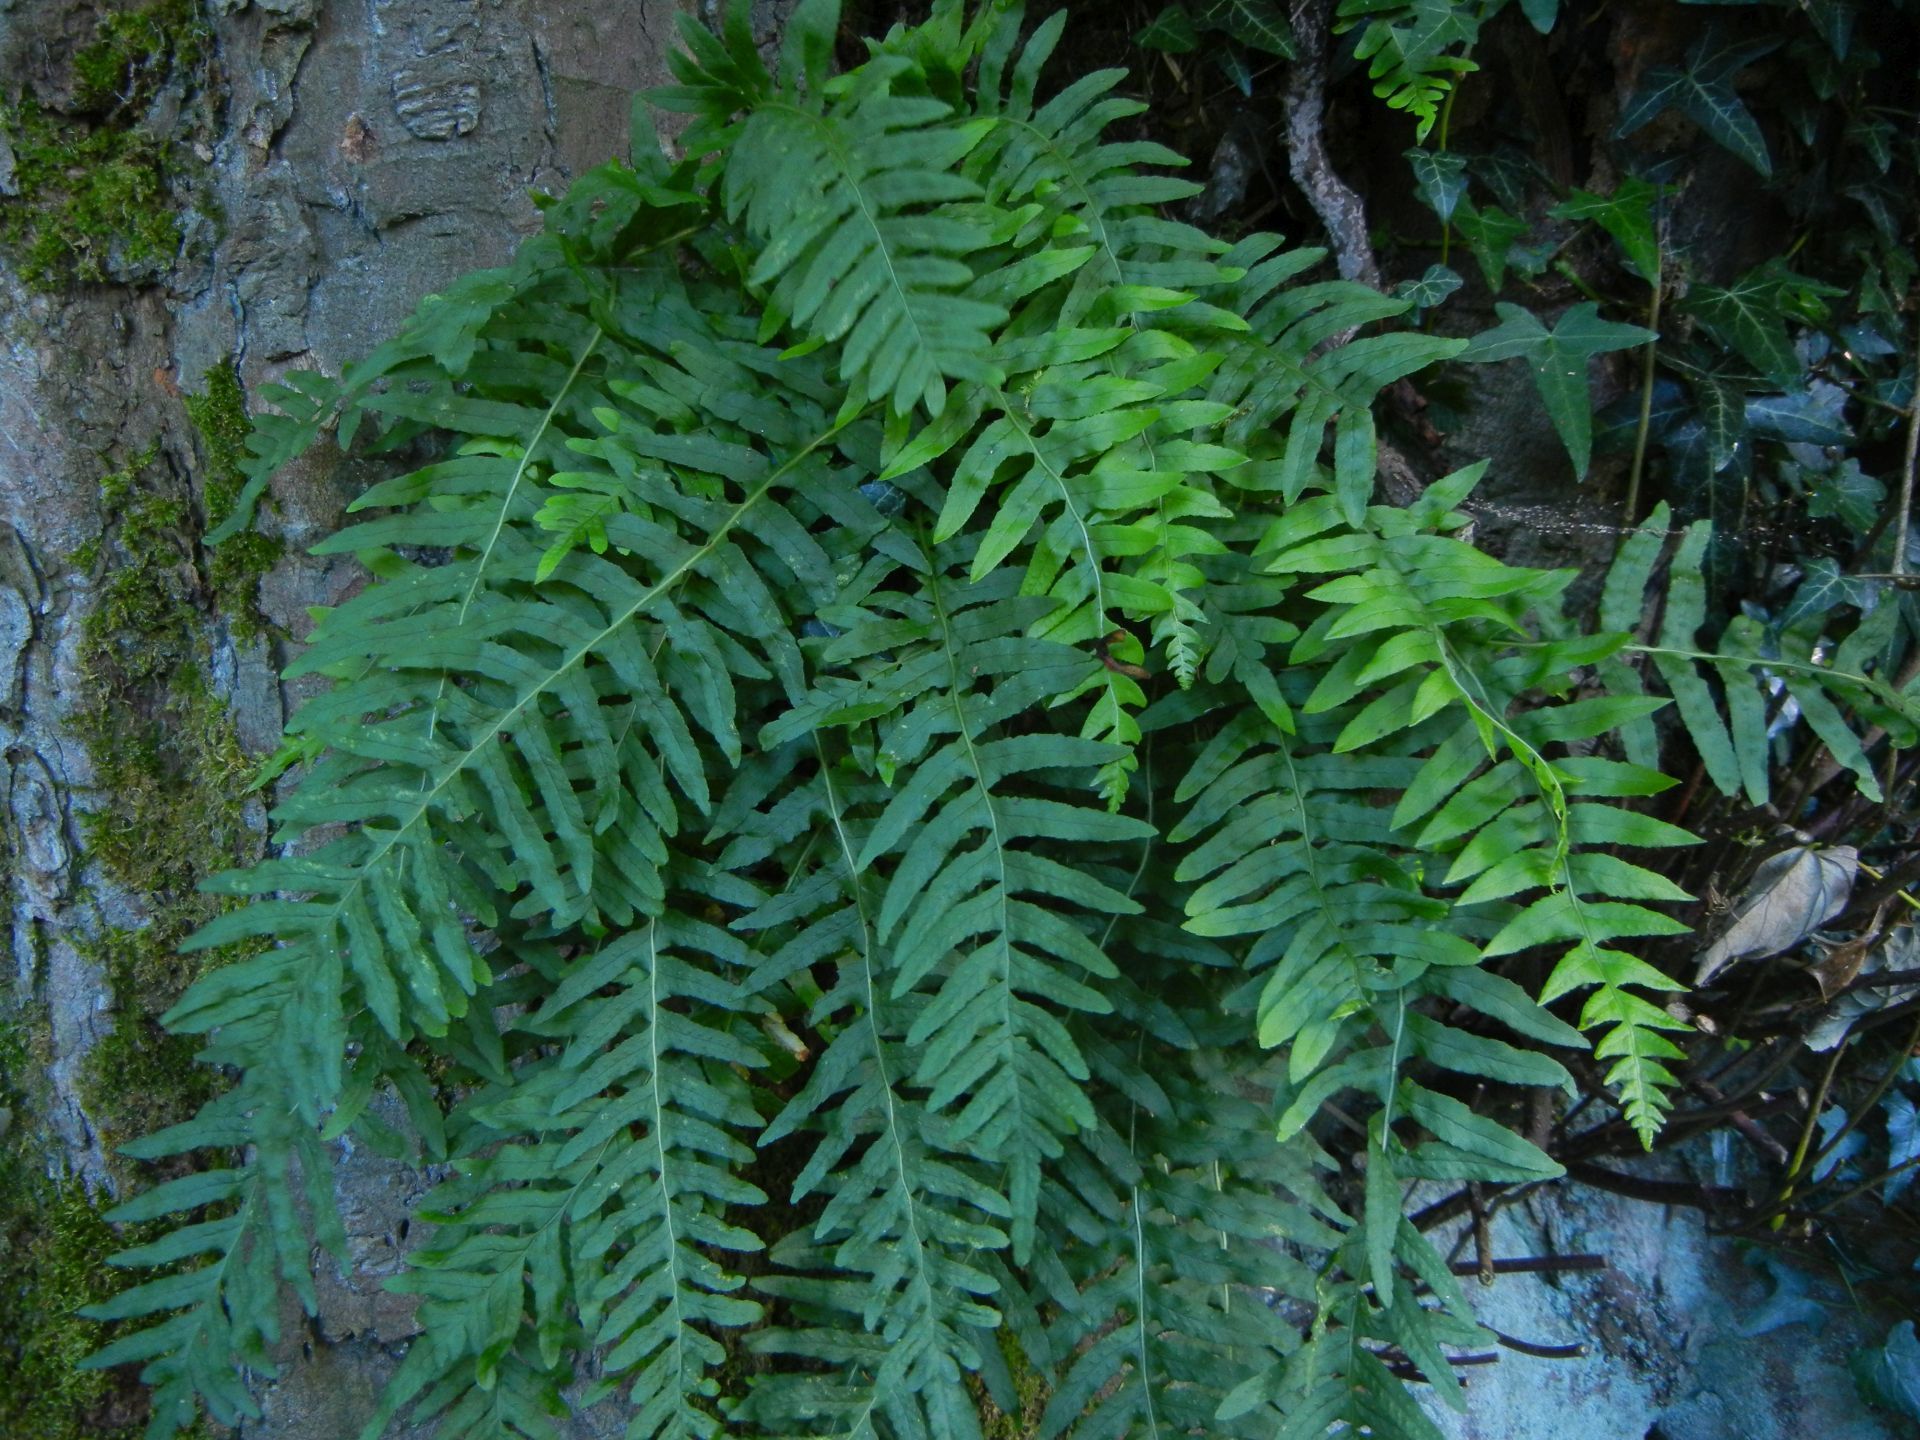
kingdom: Plantae
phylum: Tracheophyta
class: Polypodiopsida
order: Polypodiales
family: Polypodiaceae
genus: Polypodium
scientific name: Polypodium vulgare
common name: Common polypody
